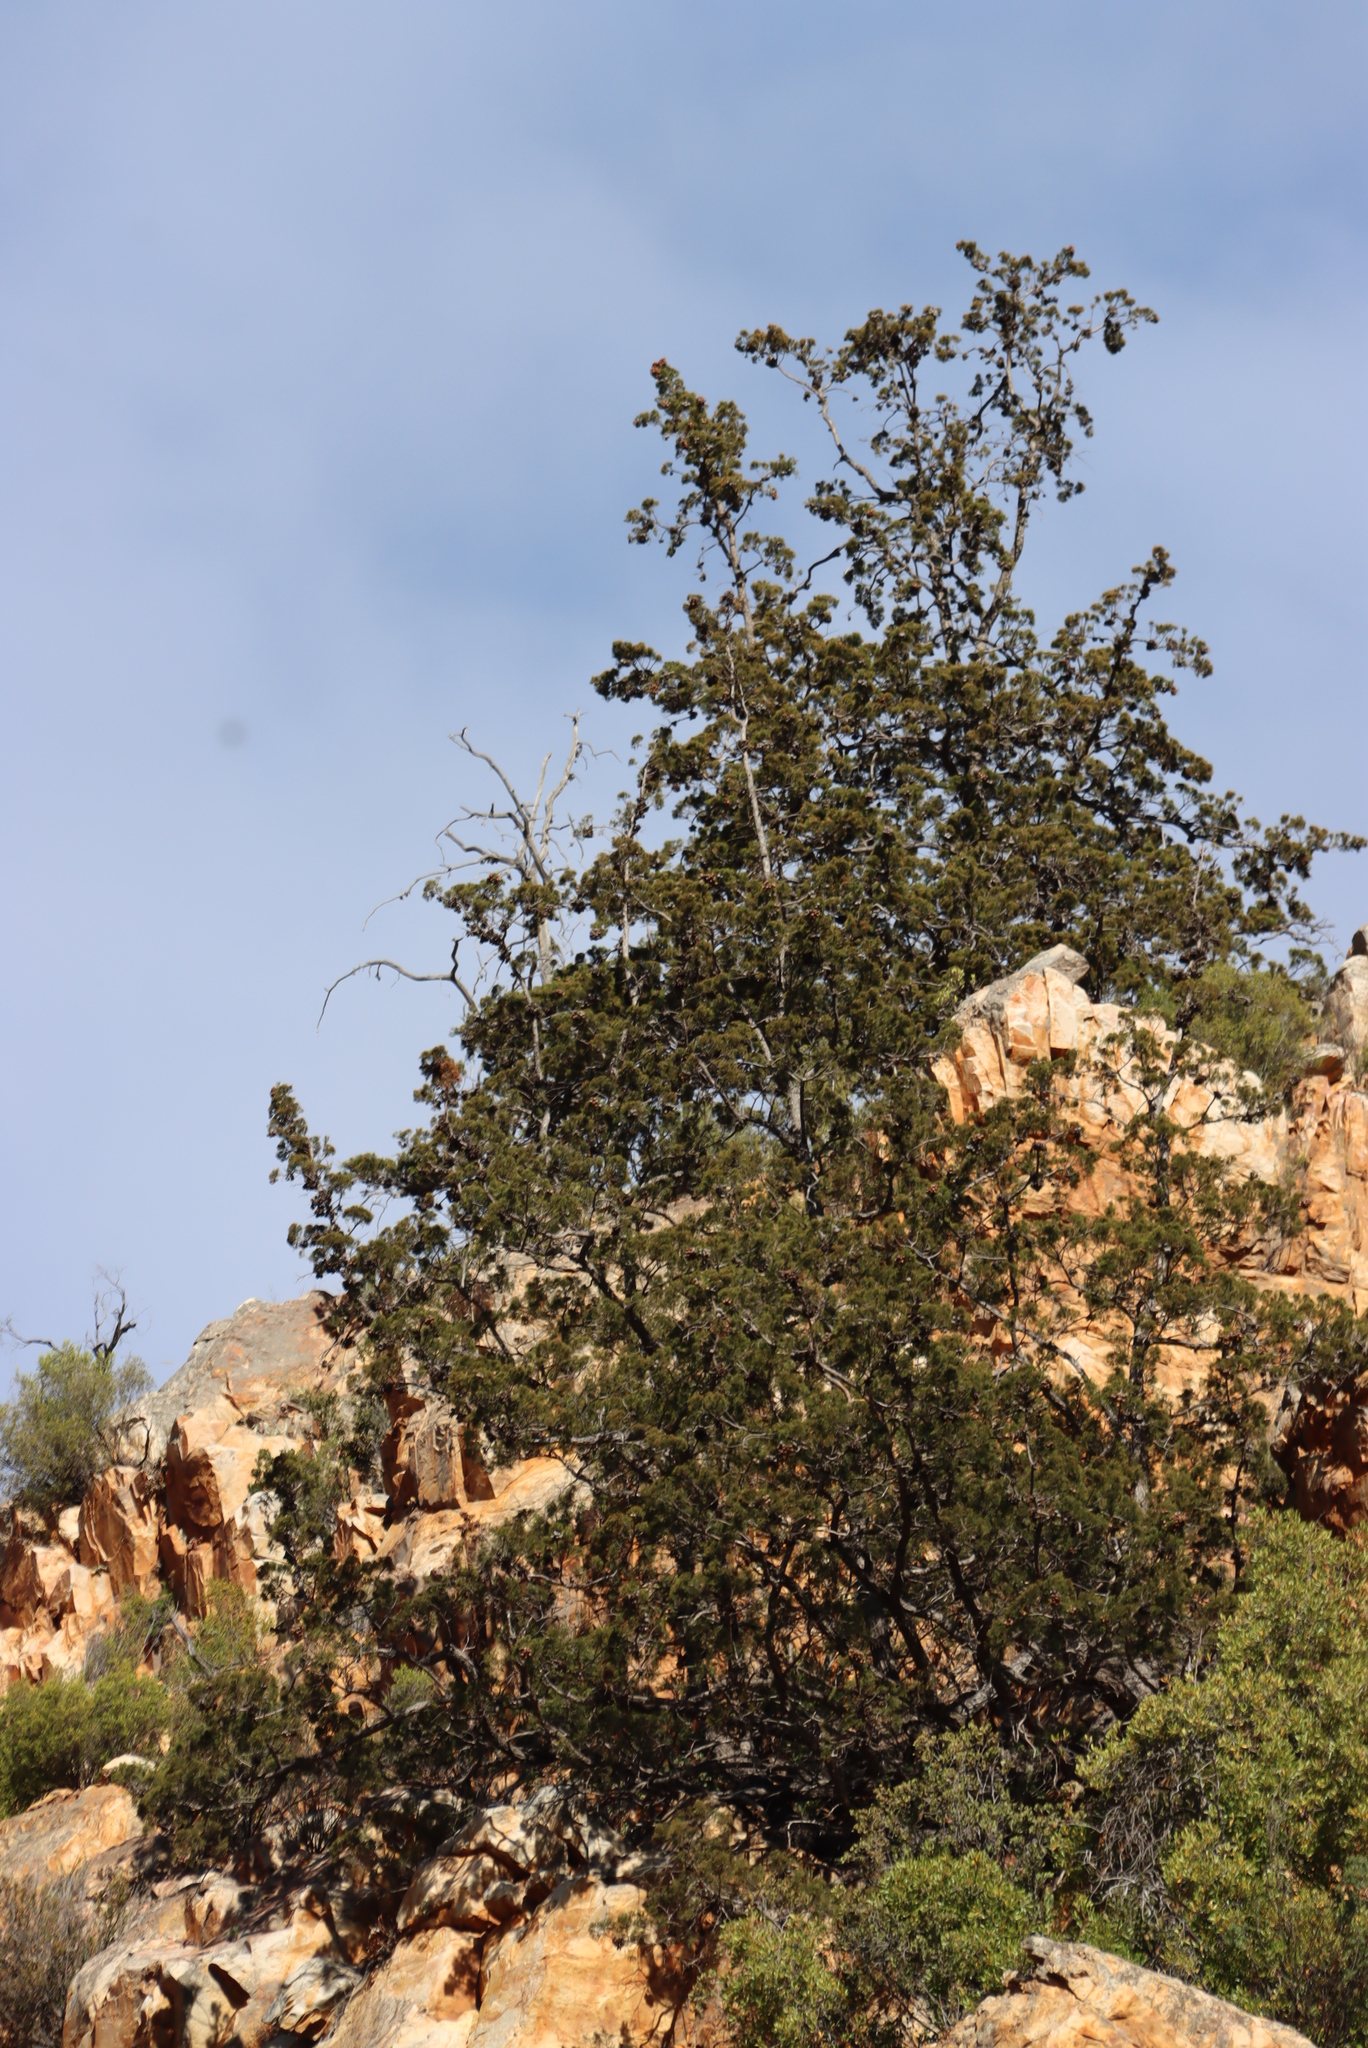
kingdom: Plantae
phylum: Tracheophyta
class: Pinopsida
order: Pinales
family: Cupressaceae
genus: Widdringtonia
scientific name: Widdringtonia schwarzii
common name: Baviaans cedar
